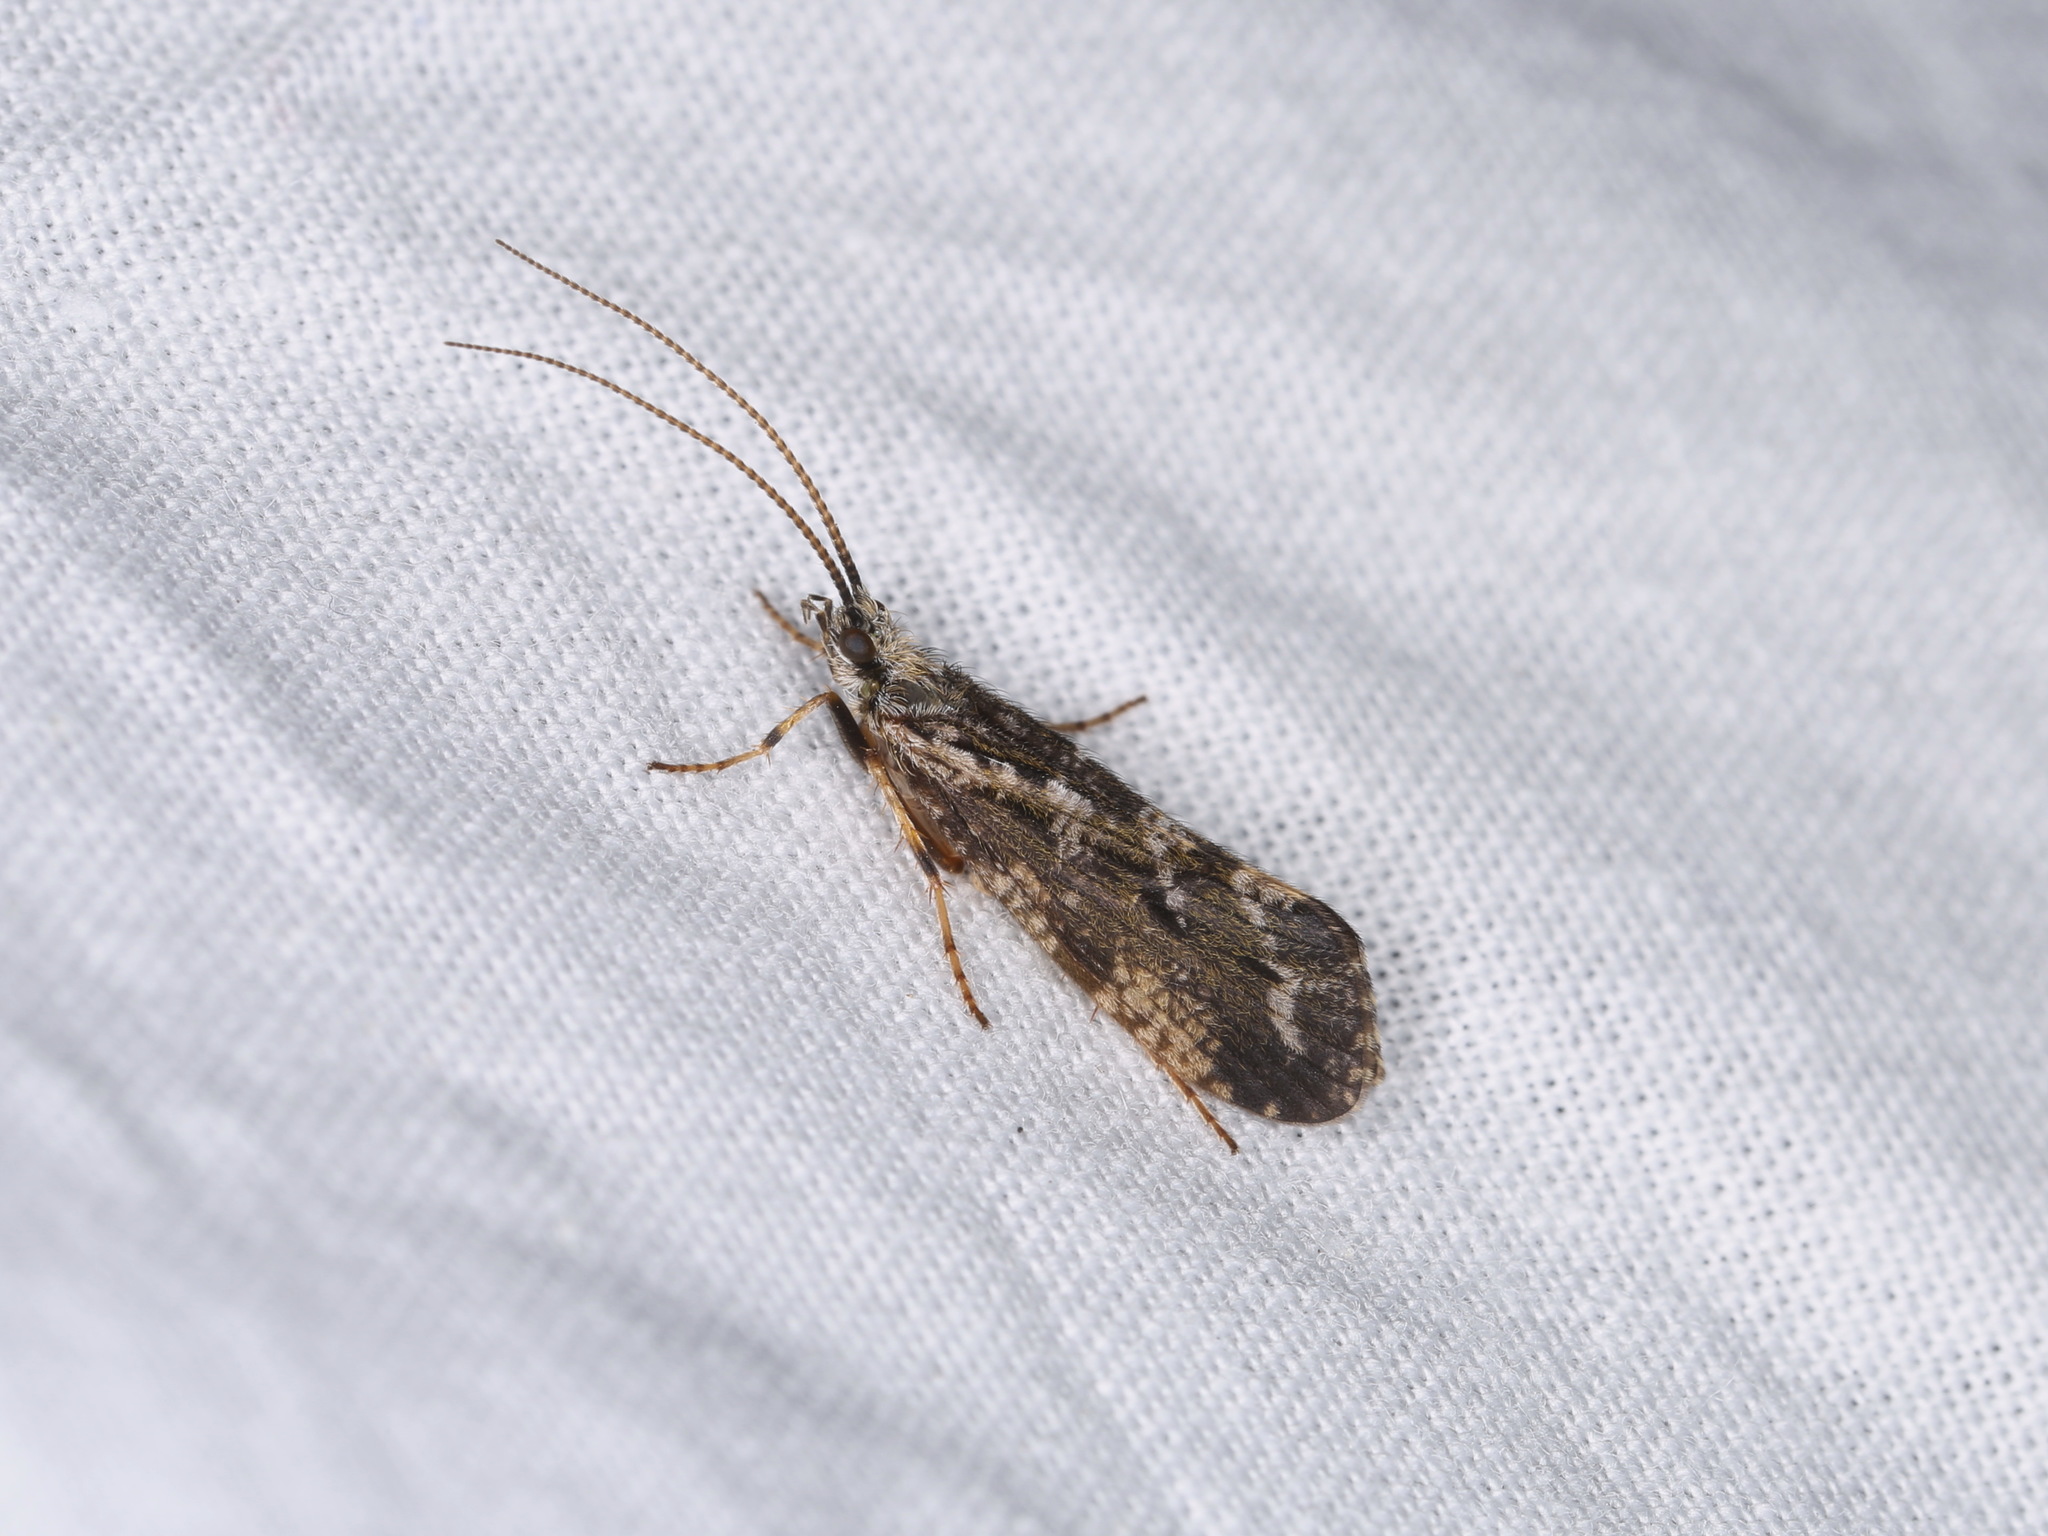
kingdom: Animalia
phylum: Arthropoda
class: Insecta
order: Trichoptera
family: Phryganeidae
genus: Trichostegia
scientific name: Trichostegia minor
